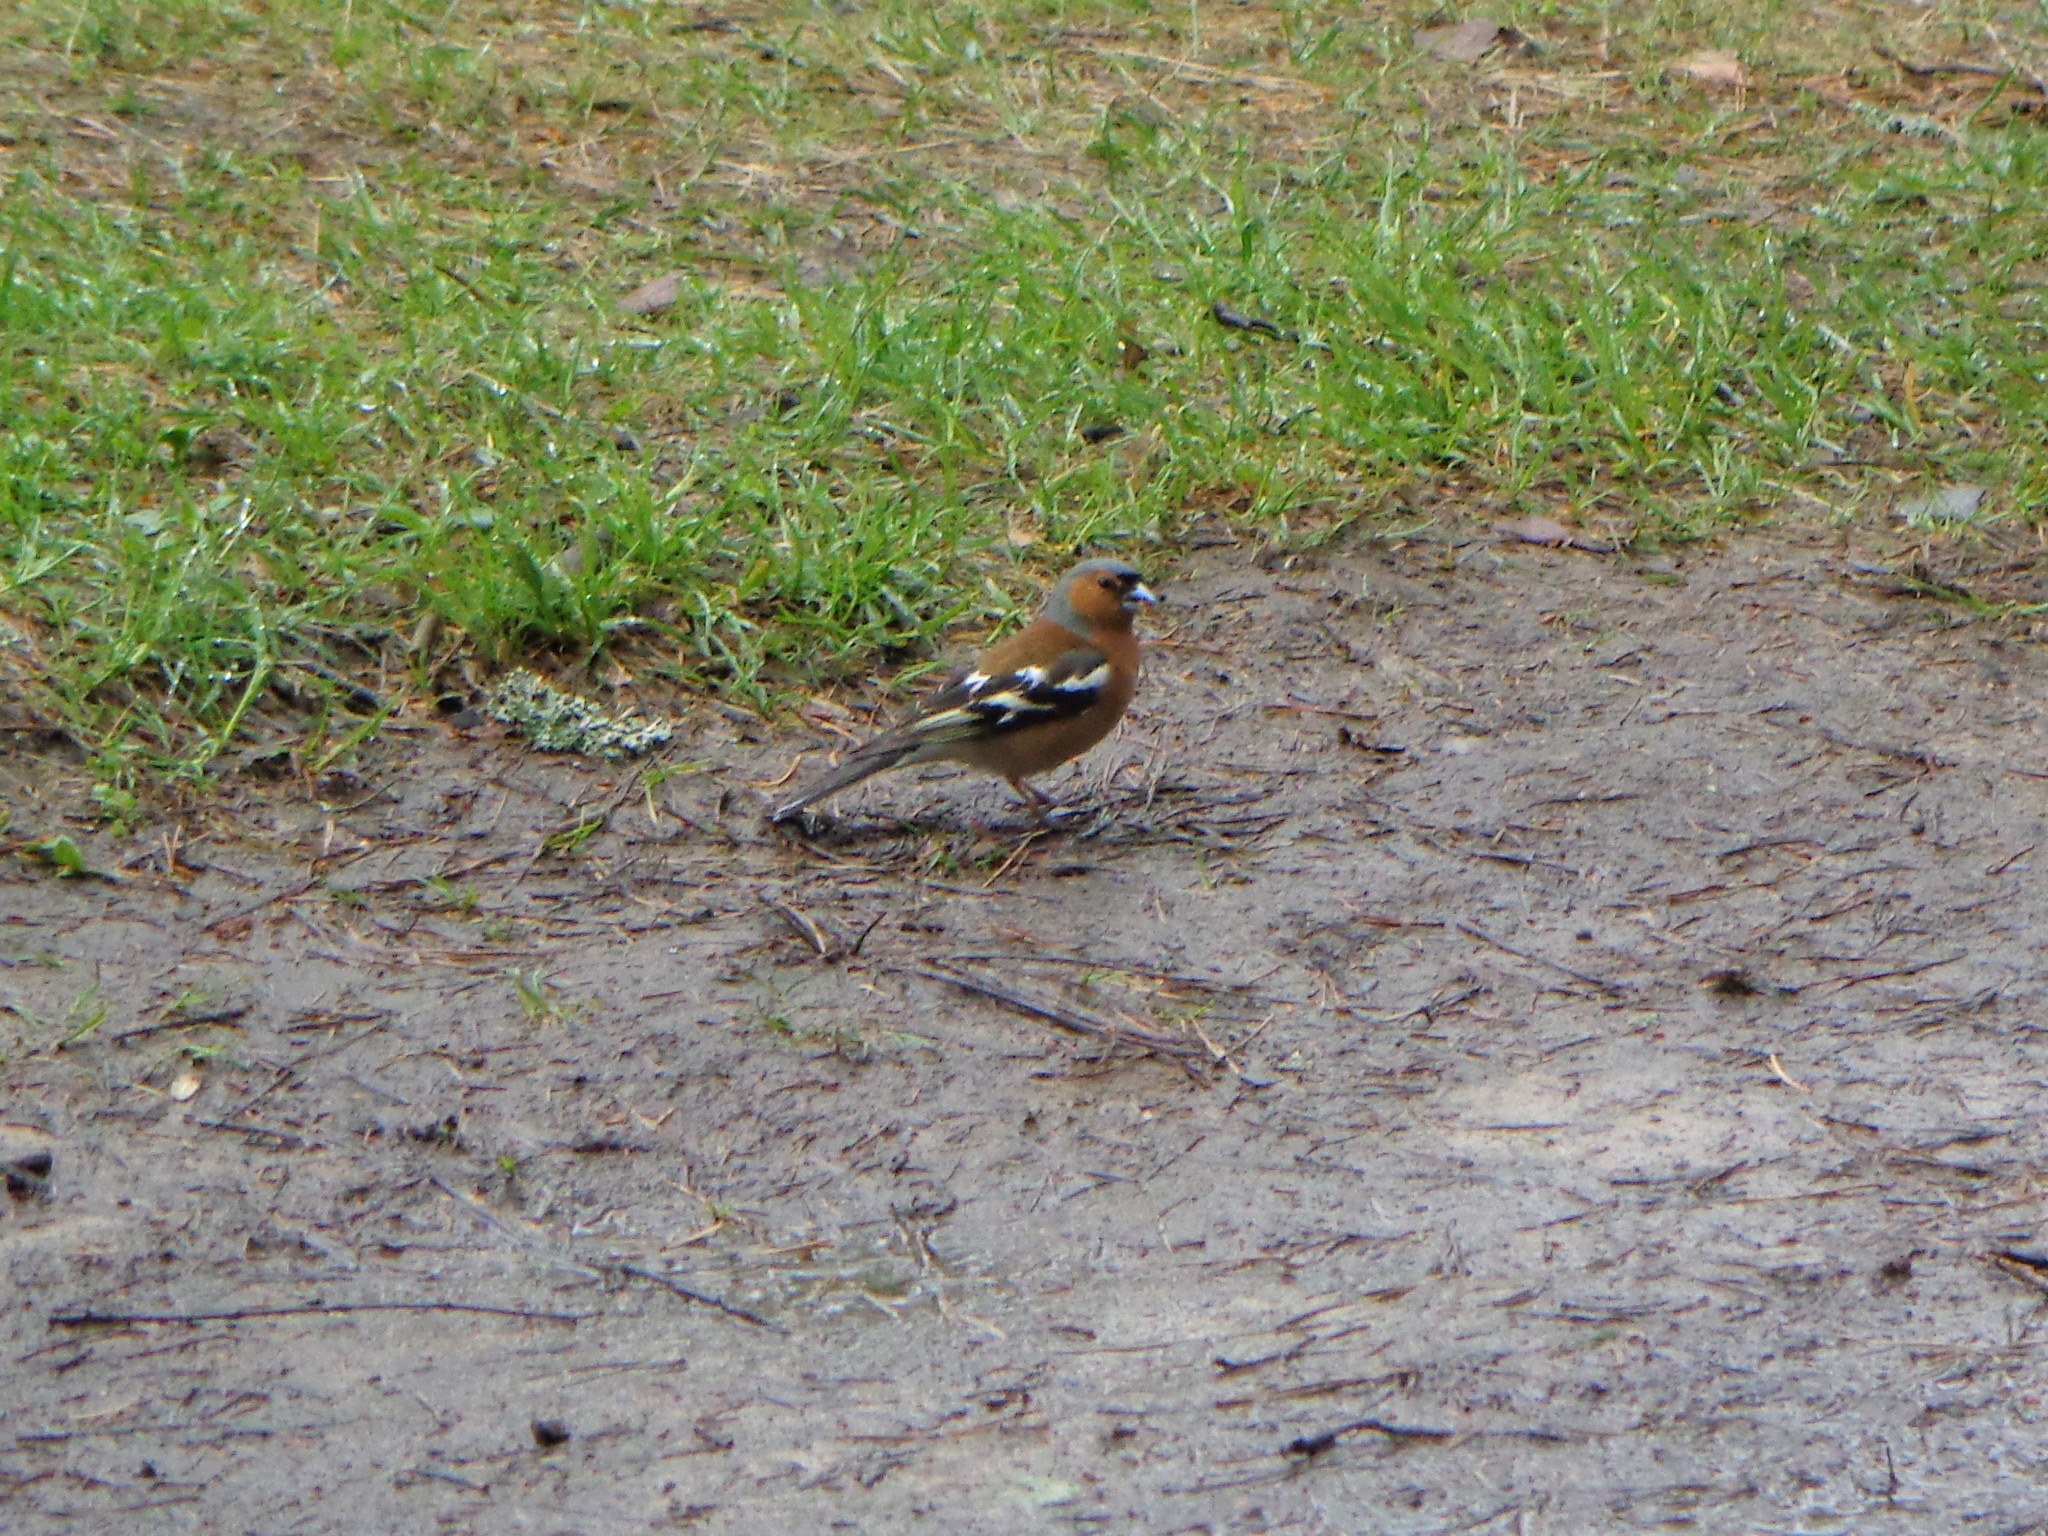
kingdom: Animalia
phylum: Chordata
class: Aves
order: Passeriformes
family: Fringillidae
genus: Fringilla
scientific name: Fringilla coelebs
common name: Common chaffinch
